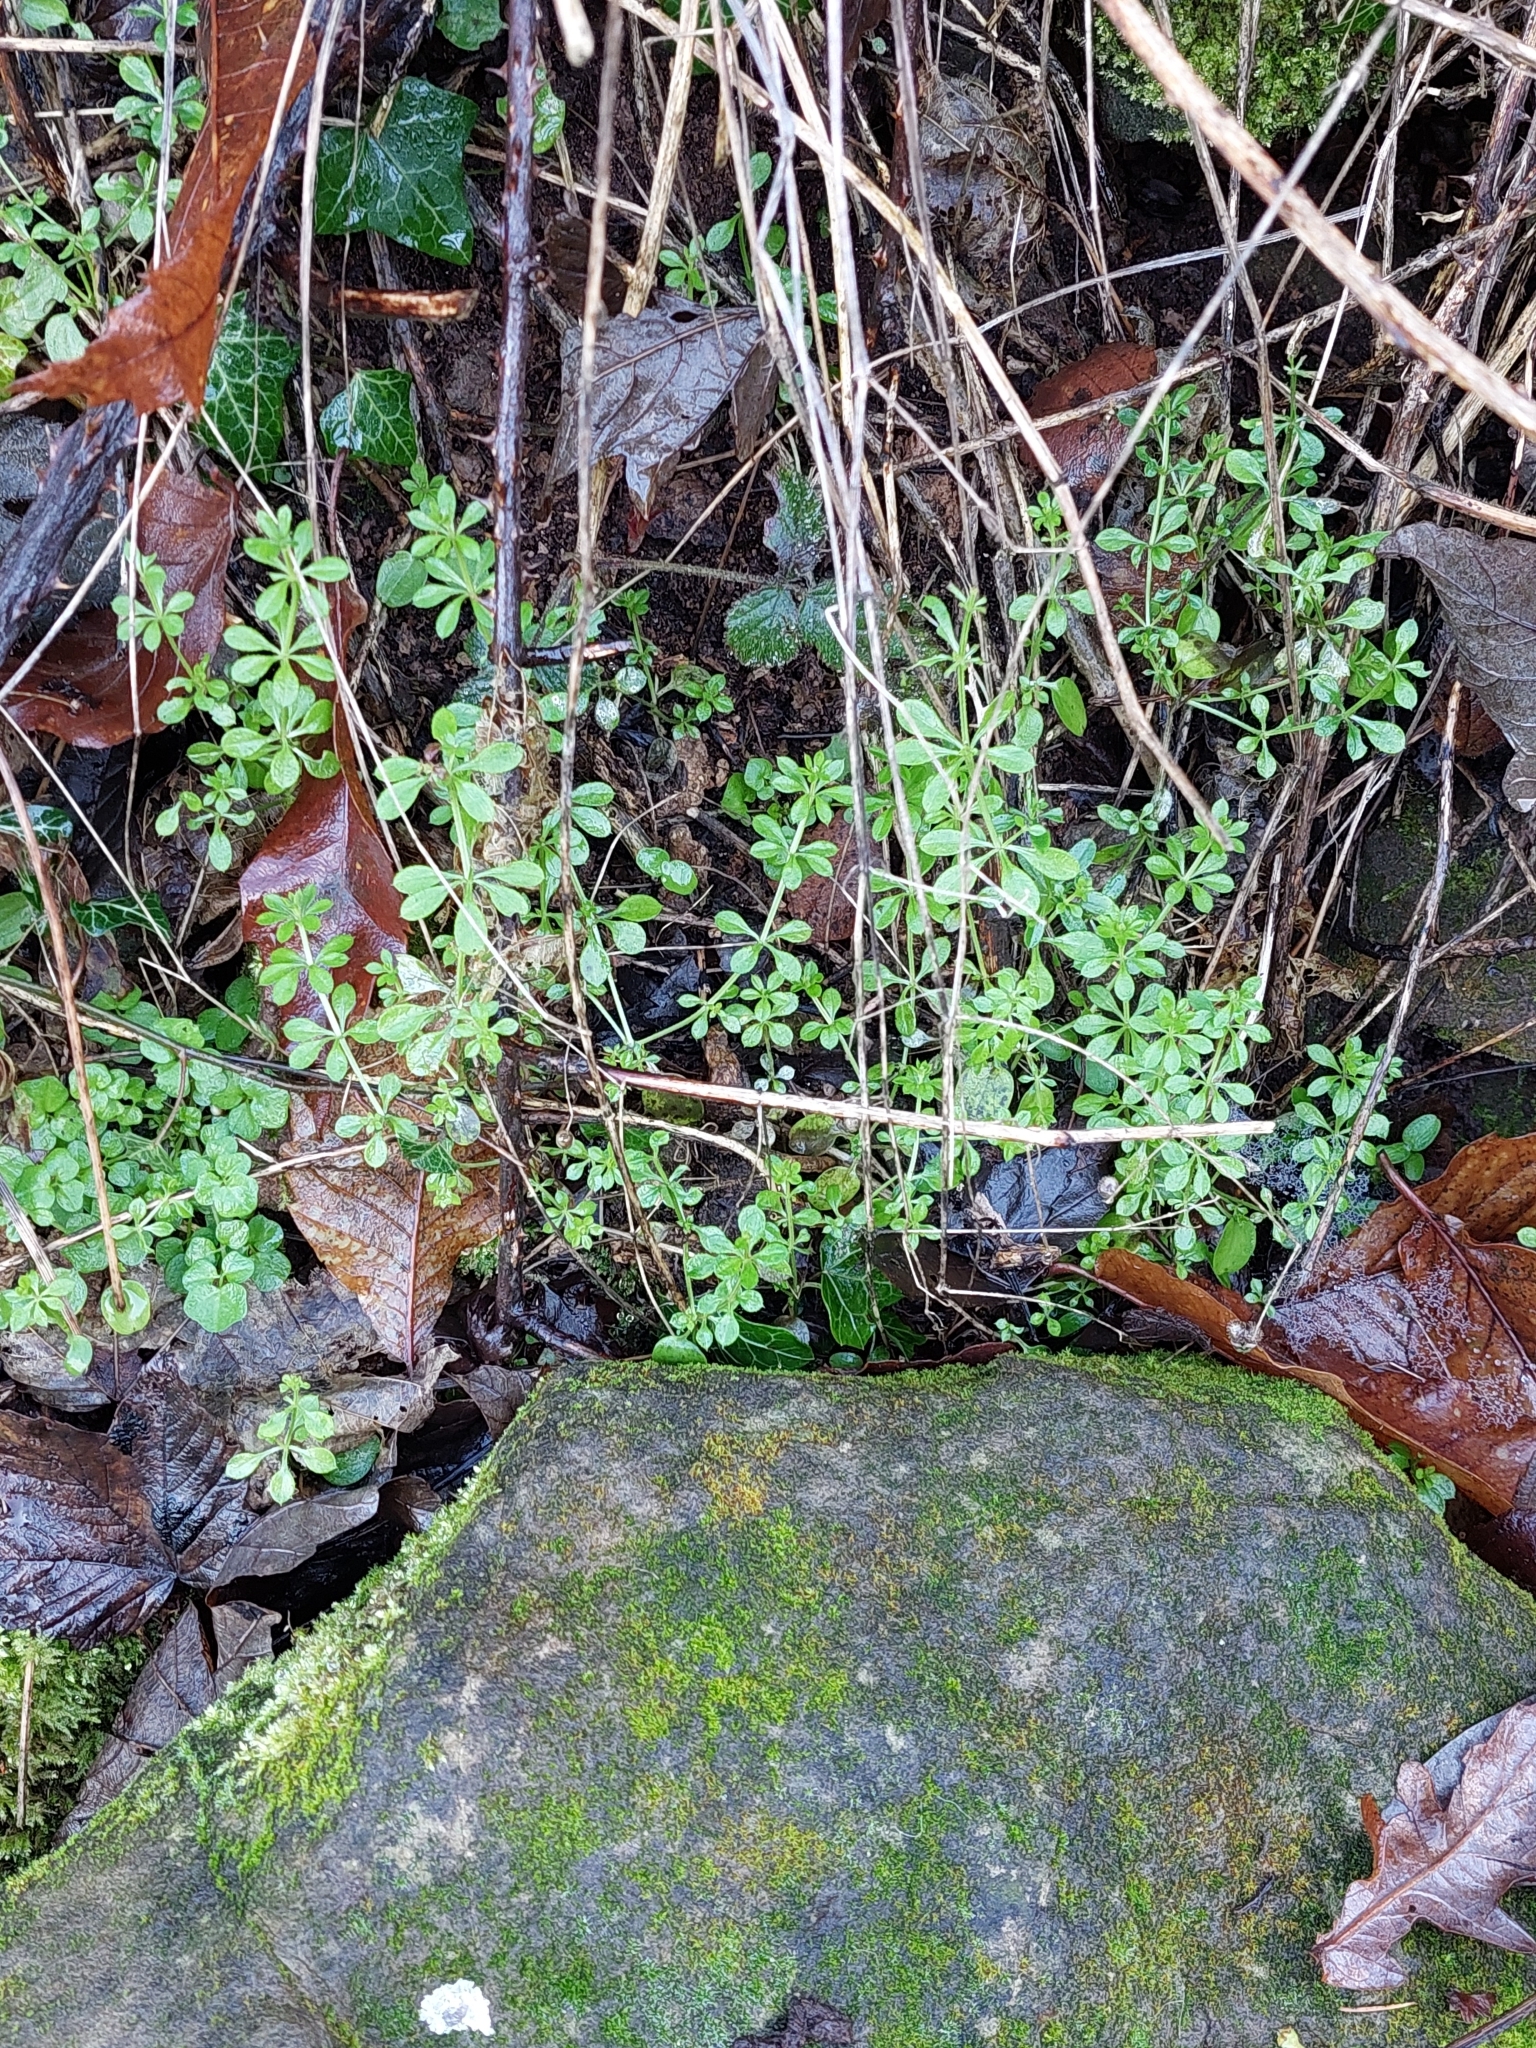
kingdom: Plantae
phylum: Tracheophyta
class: Magnoliopsida
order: Gentianales
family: Rubiaceae
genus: Galium
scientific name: Galium aparine
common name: Cleavers
